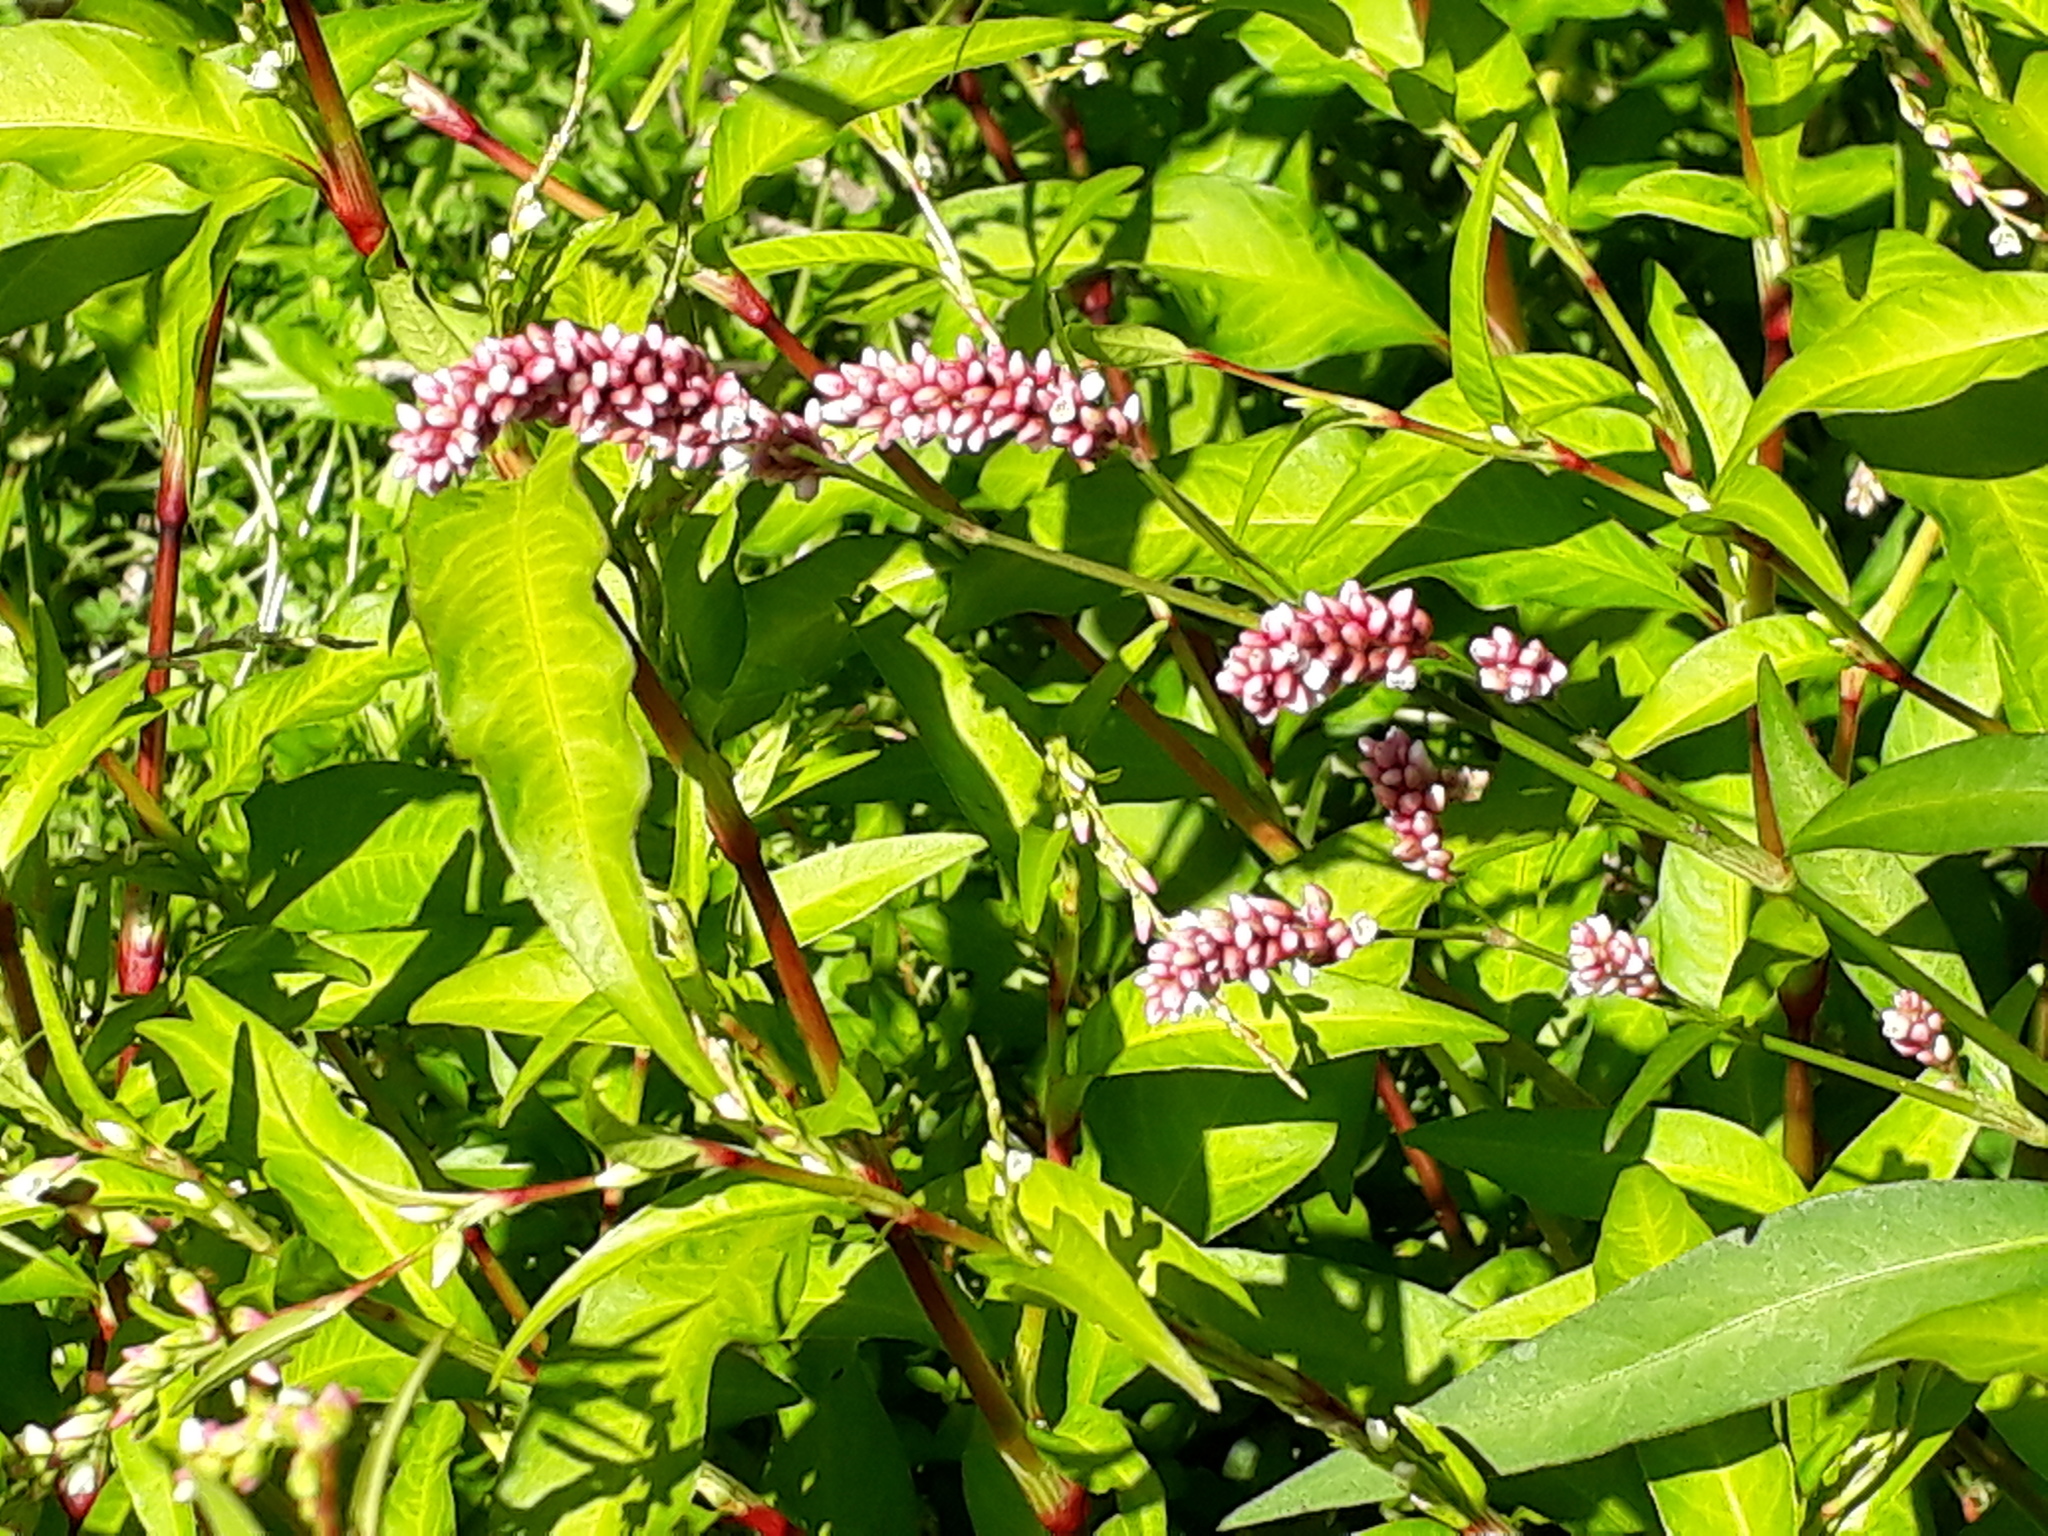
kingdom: Plantae
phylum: Tracheophyta
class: Magnoliopsida
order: Caryophyllales
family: Polygonaceae
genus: Persicaria
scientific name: Persicaria hydropiper
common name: Water-pepper
